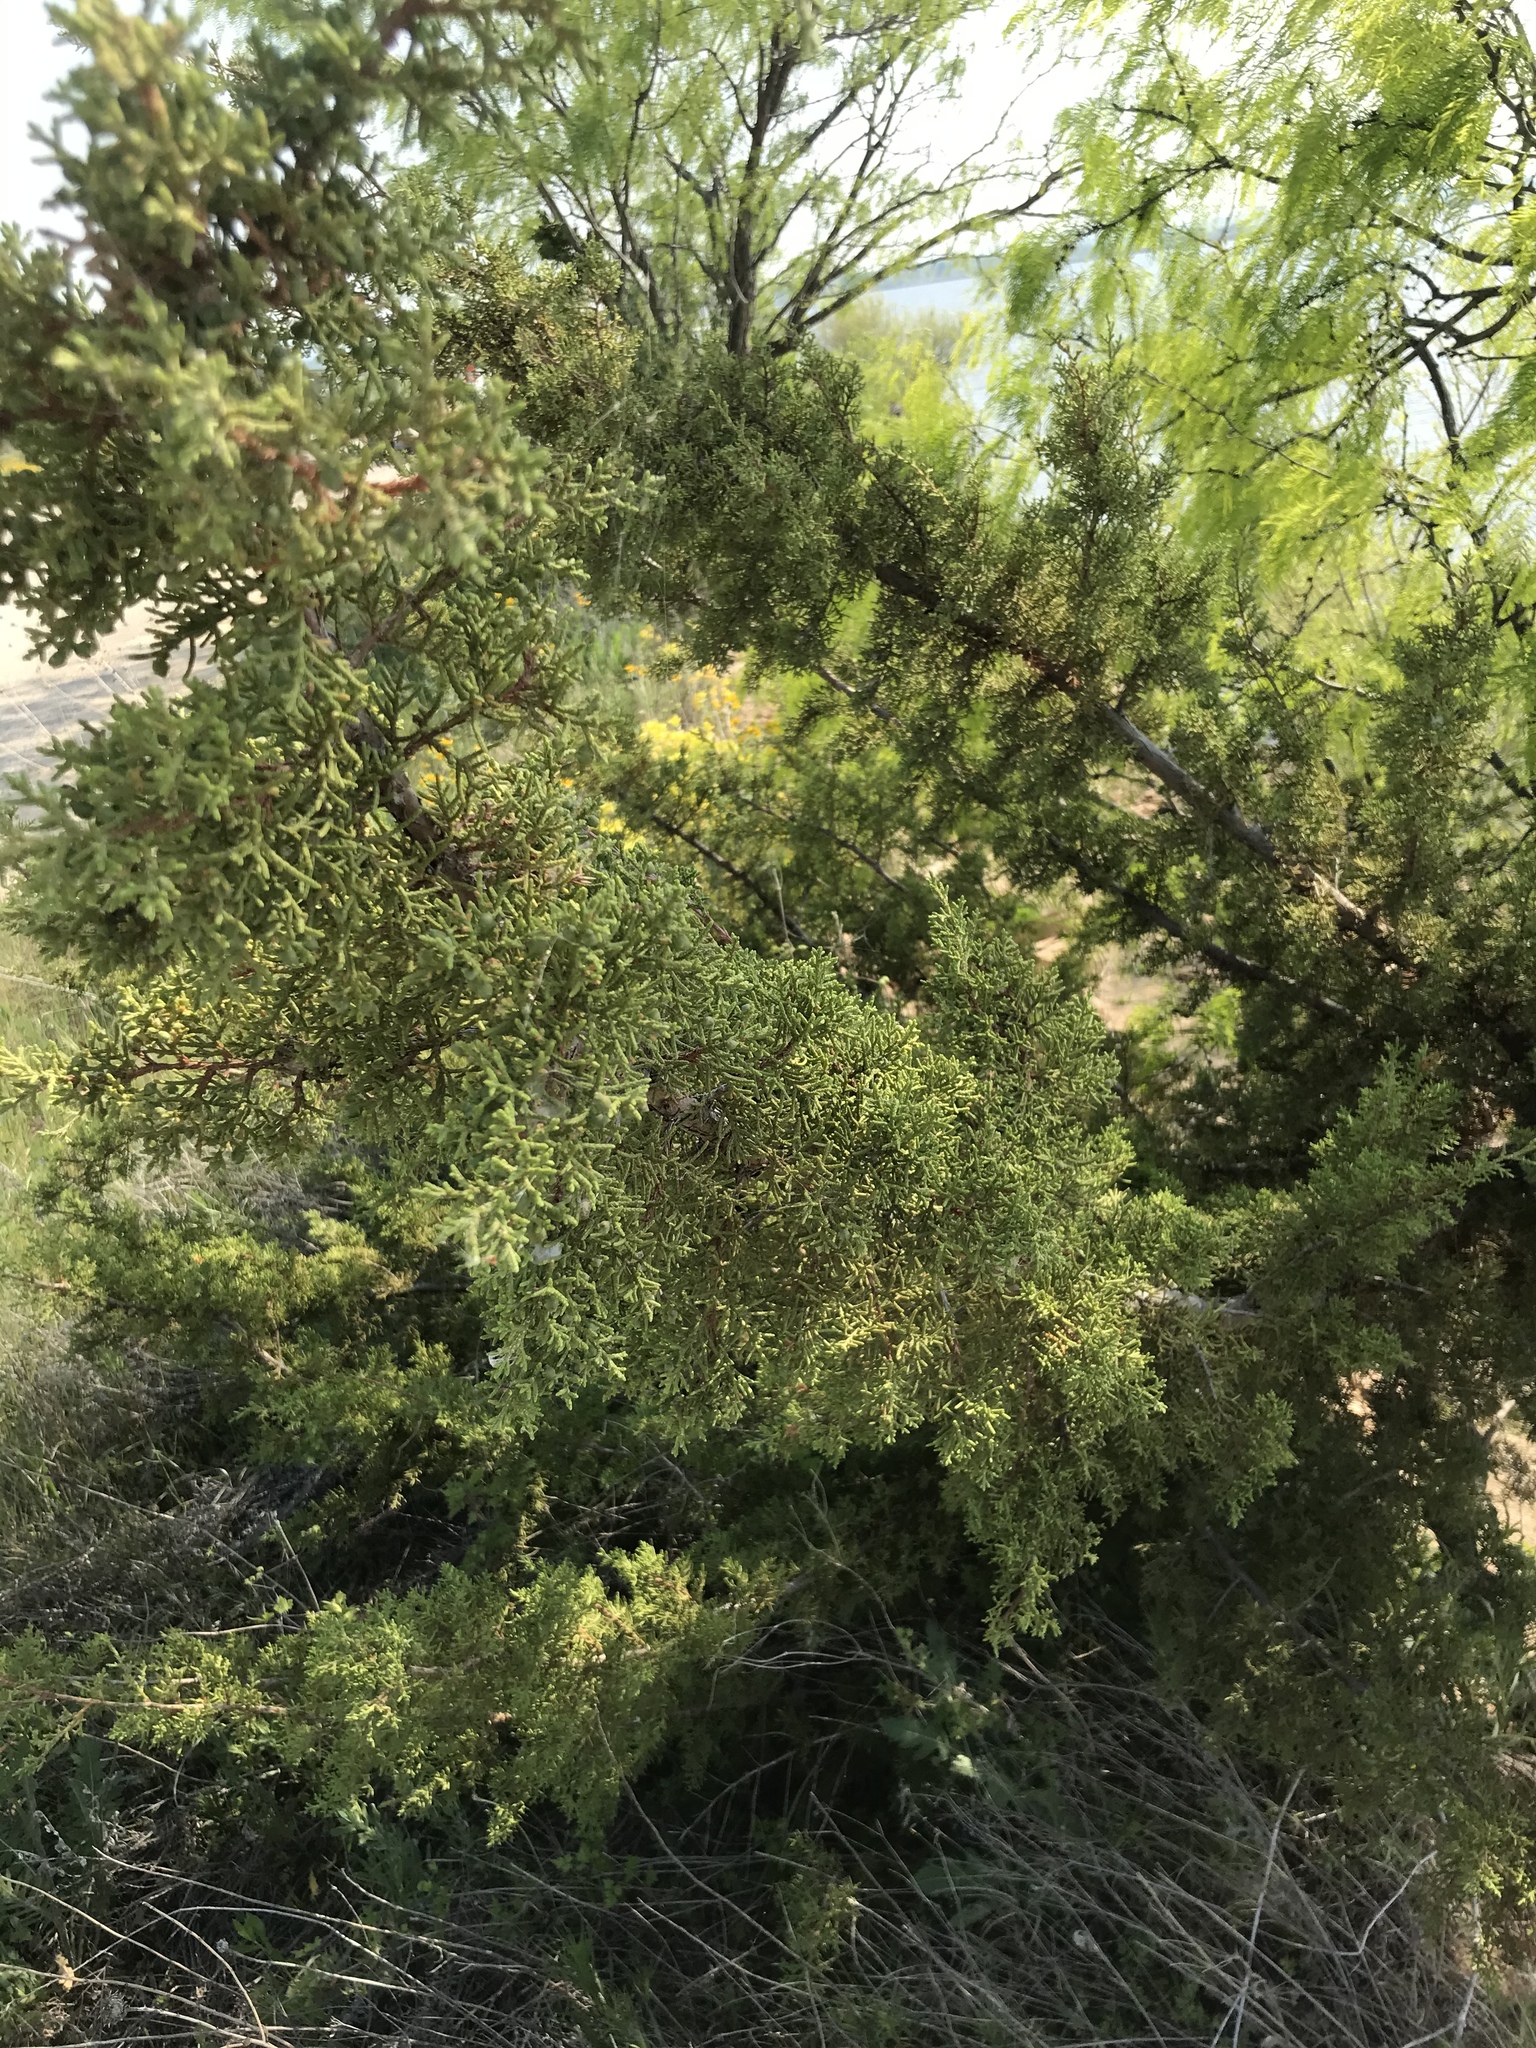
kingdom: Plantae
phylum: Tracheophyta
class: Pinopsida
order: Pinales
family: Cupressaceae
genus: Juniperus
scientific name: Juniperus ashei
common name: Mexican juniper
